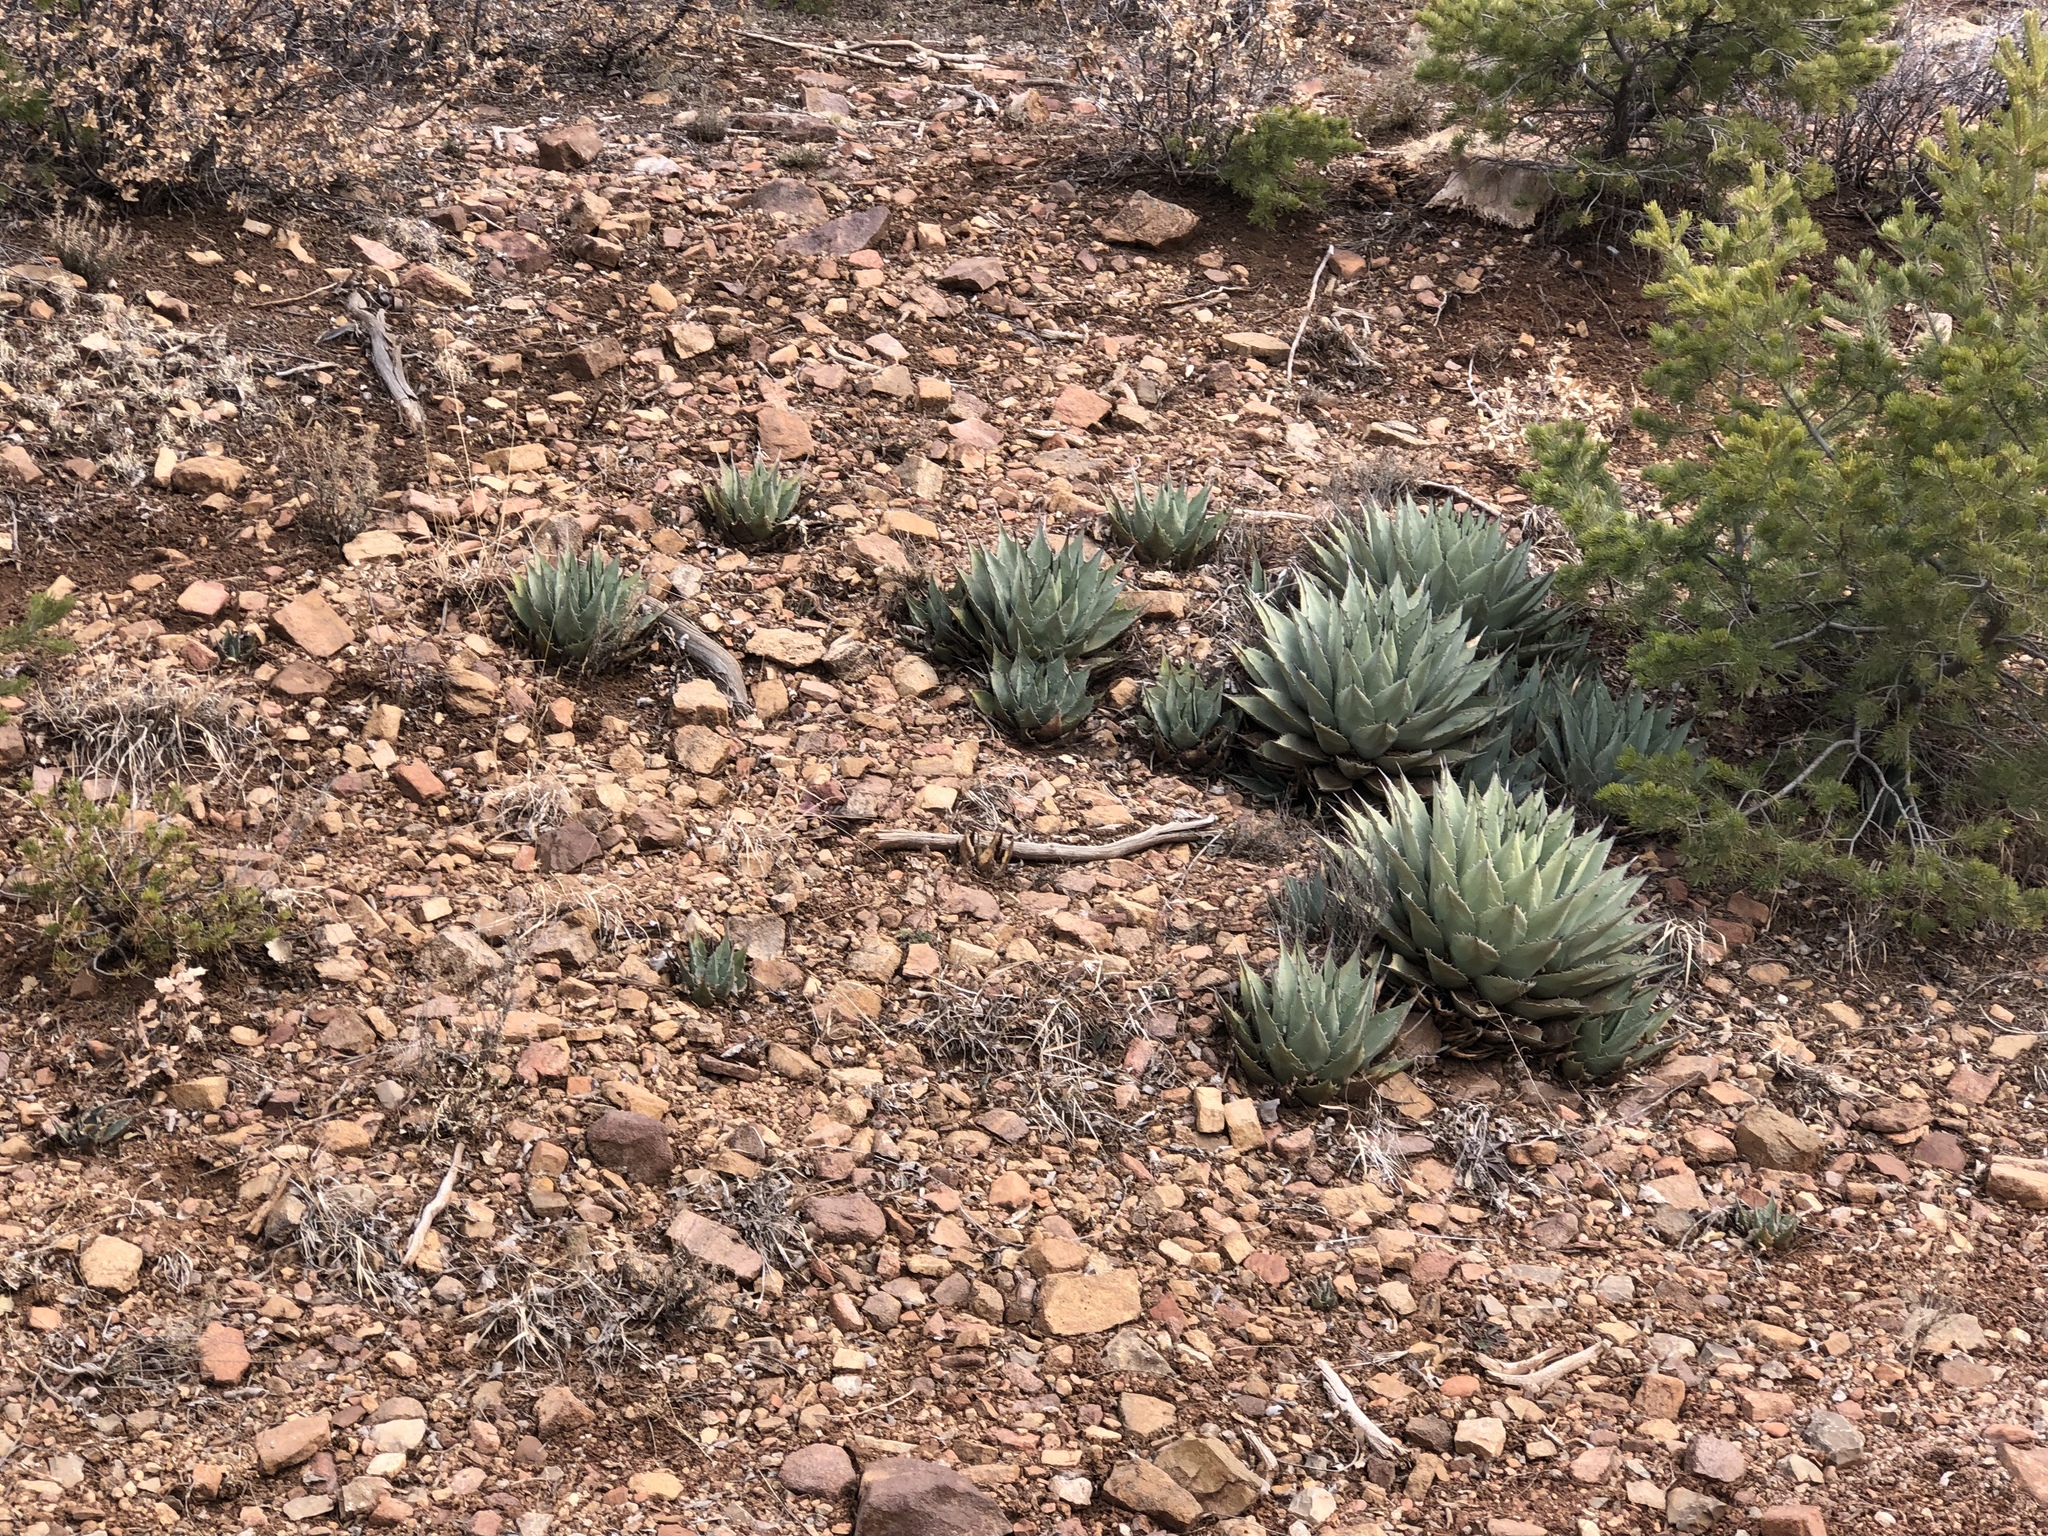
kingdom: Plantae
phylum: Tracheophyta
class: Liliopsida
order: Asparagales
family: Asparagaceae
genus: Agave
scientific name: Agave parryi
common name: Parry's agave
